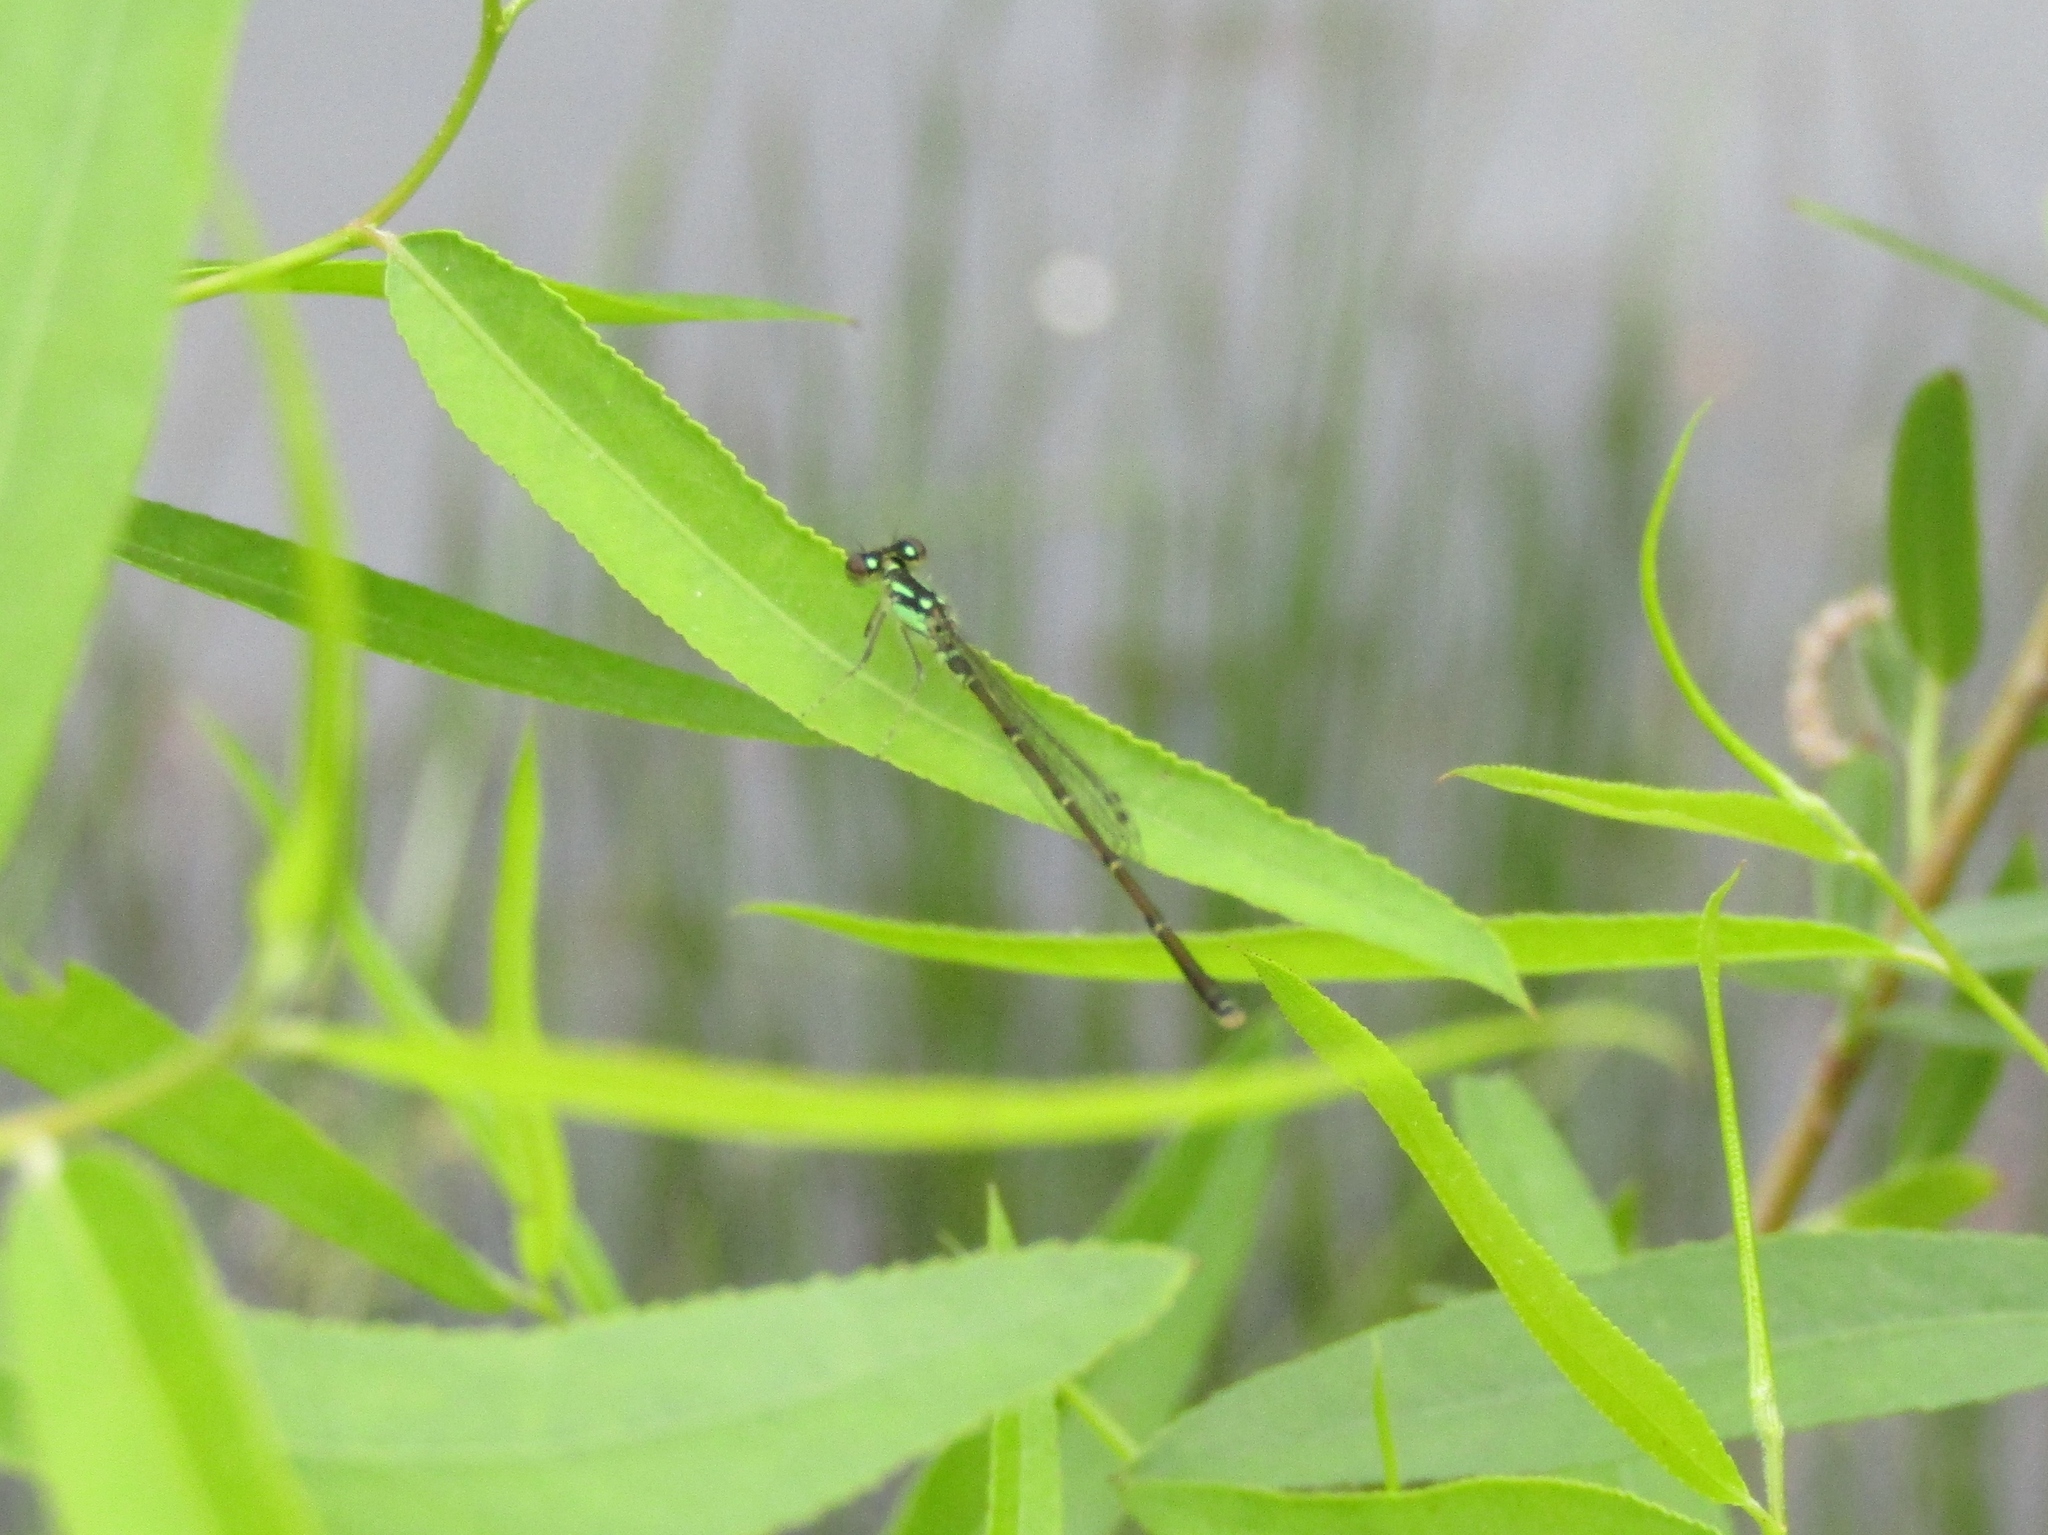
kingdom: Animalia
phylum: Arthropoda
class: Insecta
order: Odonata
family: Coenagrionidae
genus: Ischnura
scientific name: Ischnura posita
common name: Fragile forktail
